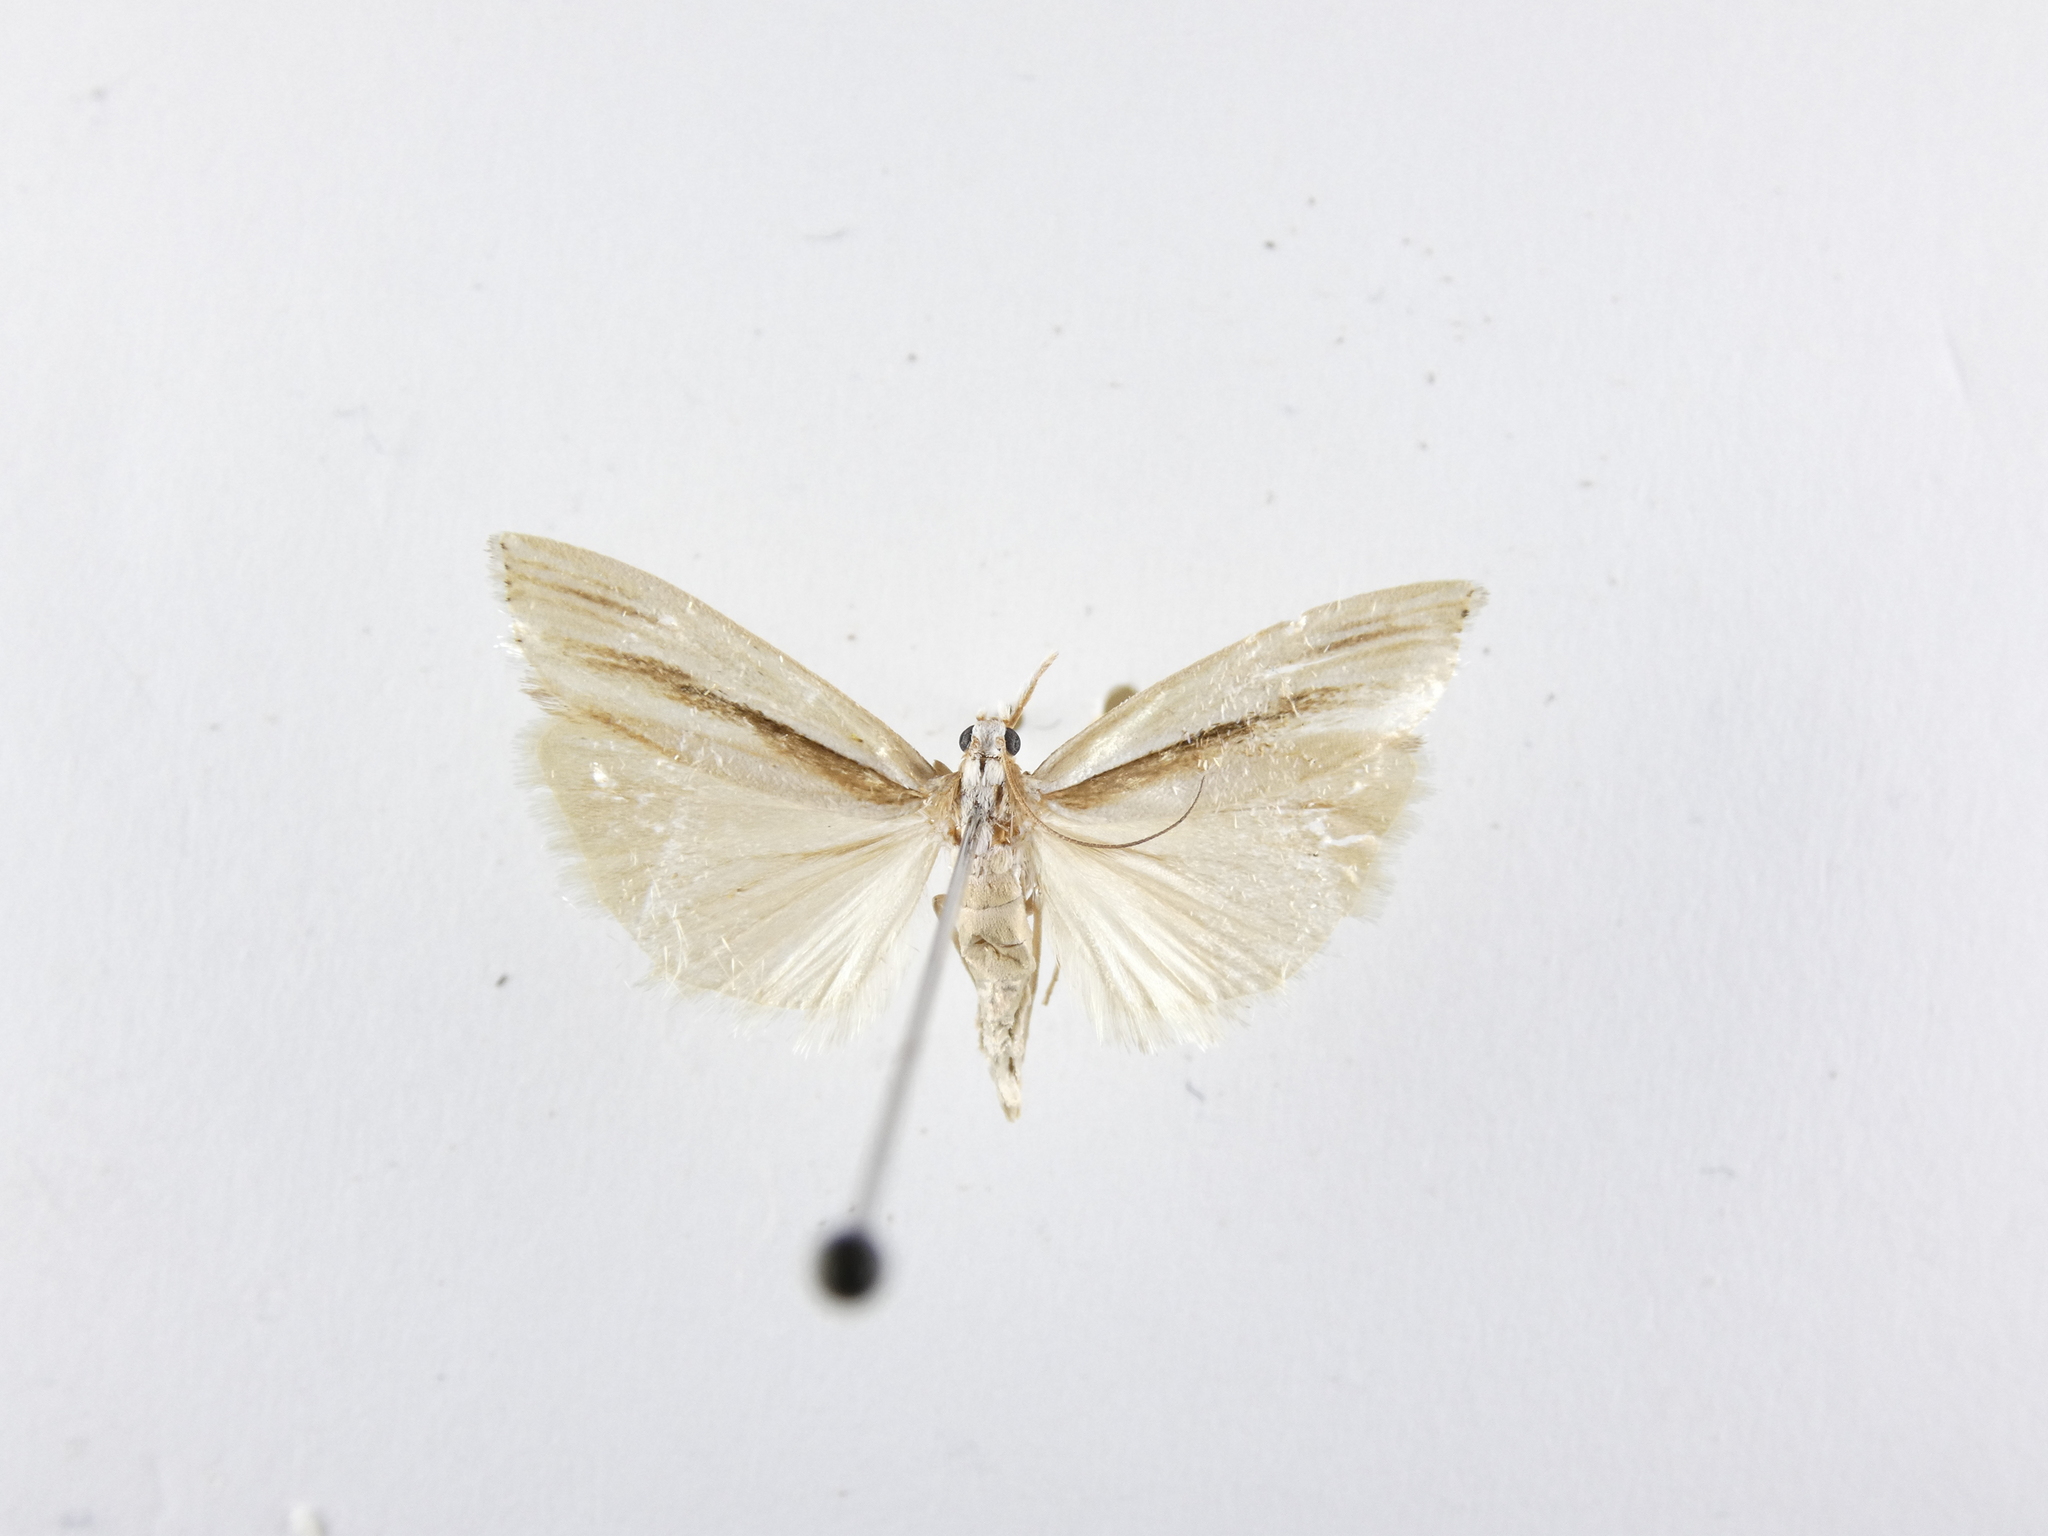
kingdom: Animalia
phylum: Arthropoda
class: Insecta
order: Lepidoptera
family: Crambidae
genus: Orocrambus
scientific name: Orocrambus ramosellus
